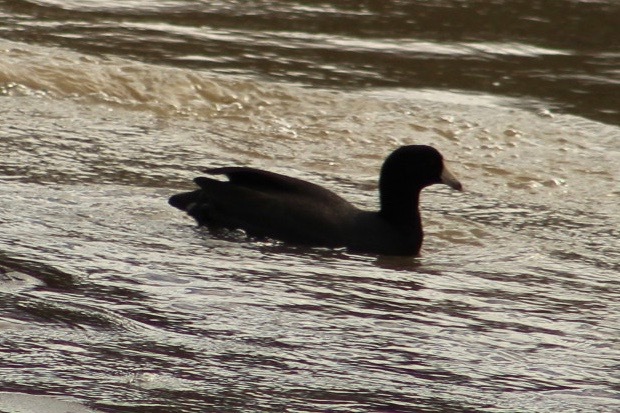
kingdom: Animalia
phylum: Chordata
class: Aves
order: Gruiformes
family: Rallidae
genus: Fulica
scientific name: Fulica americana
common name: American coot
